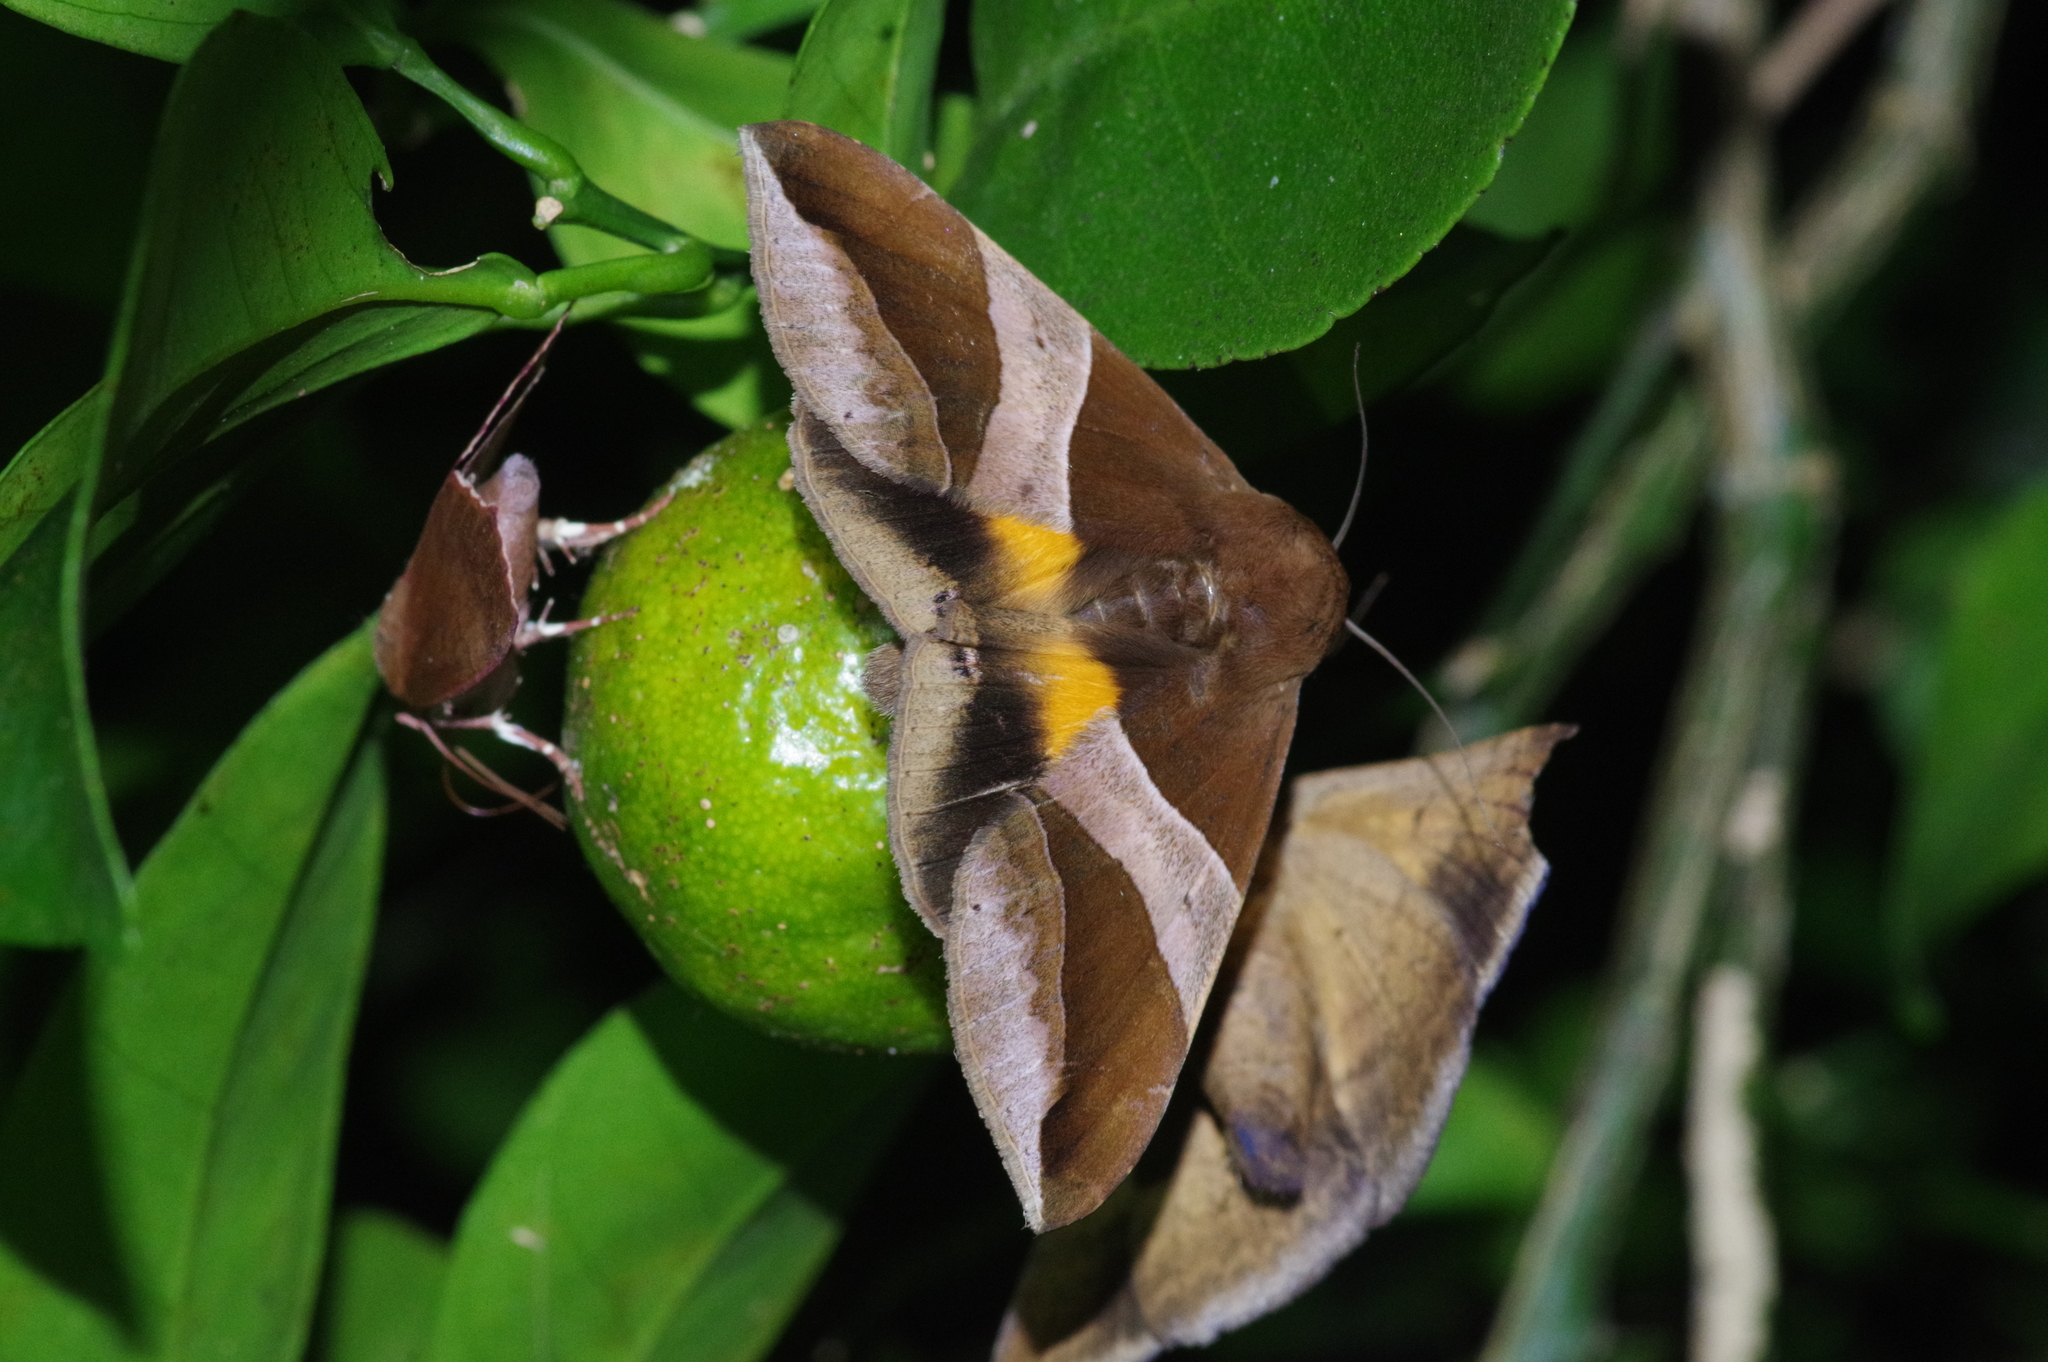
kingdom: Animalia
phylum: Arthropoda
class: Insecta
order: Lepidoptera
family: Erebidae
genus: Bastilla
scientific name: Bastilla fulvotaenia
